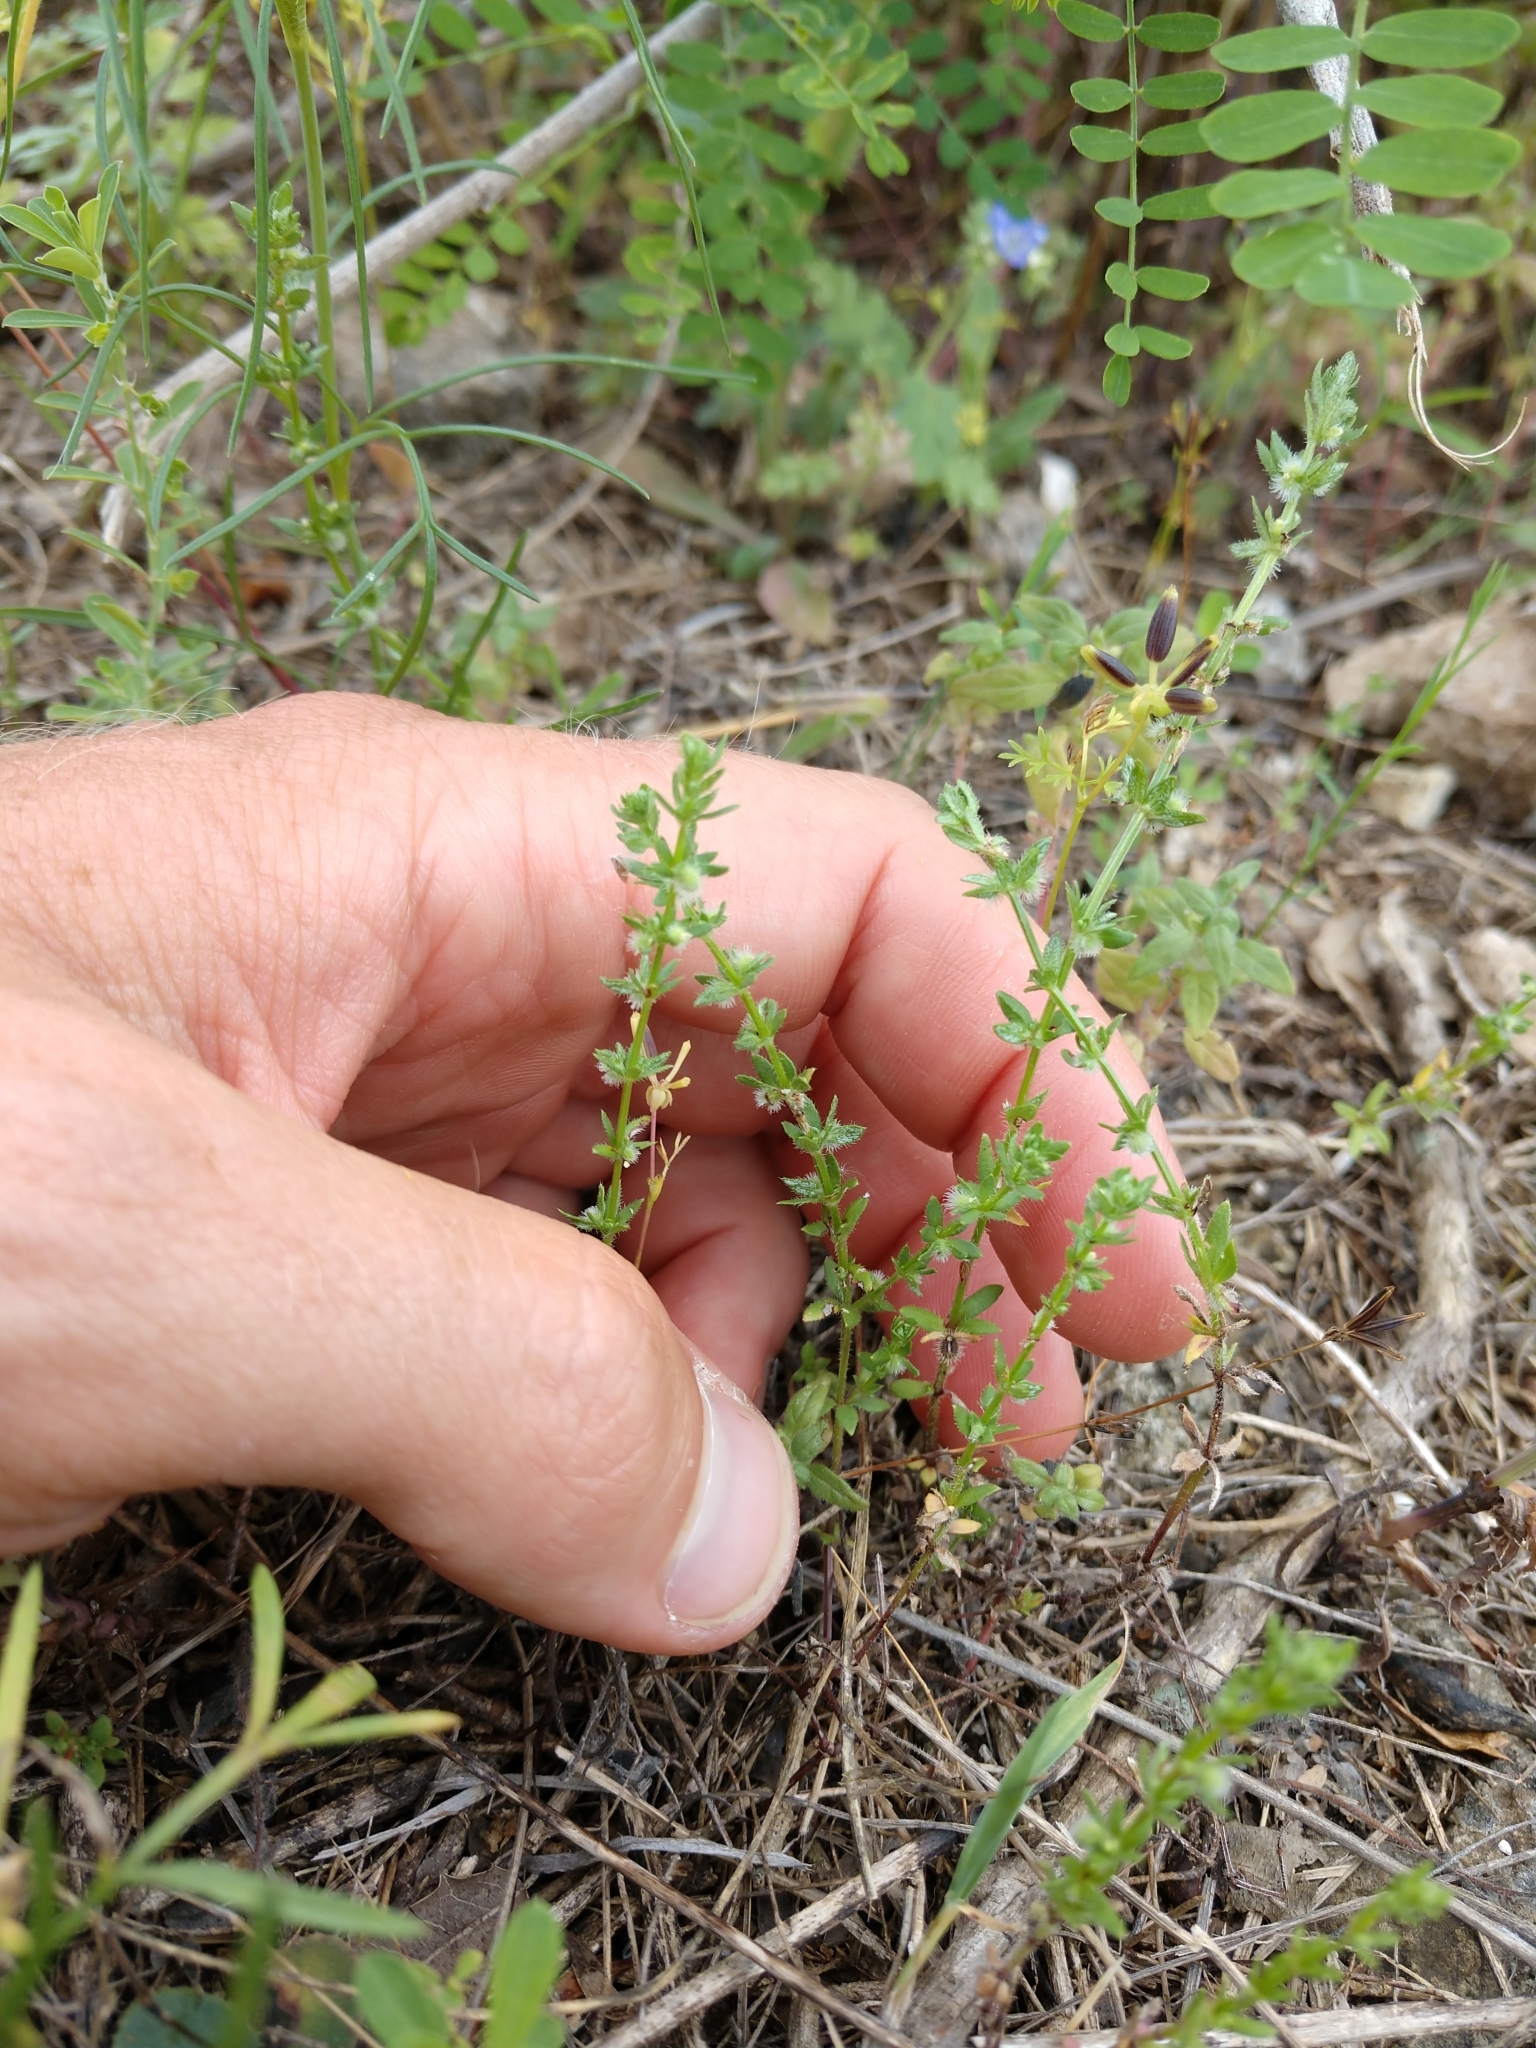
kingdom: Plantae
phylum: Tracheophyta
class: Magnoliopsida
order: Gentianales
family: Rubiaceae
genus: Galium
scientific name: Galium virgatum
